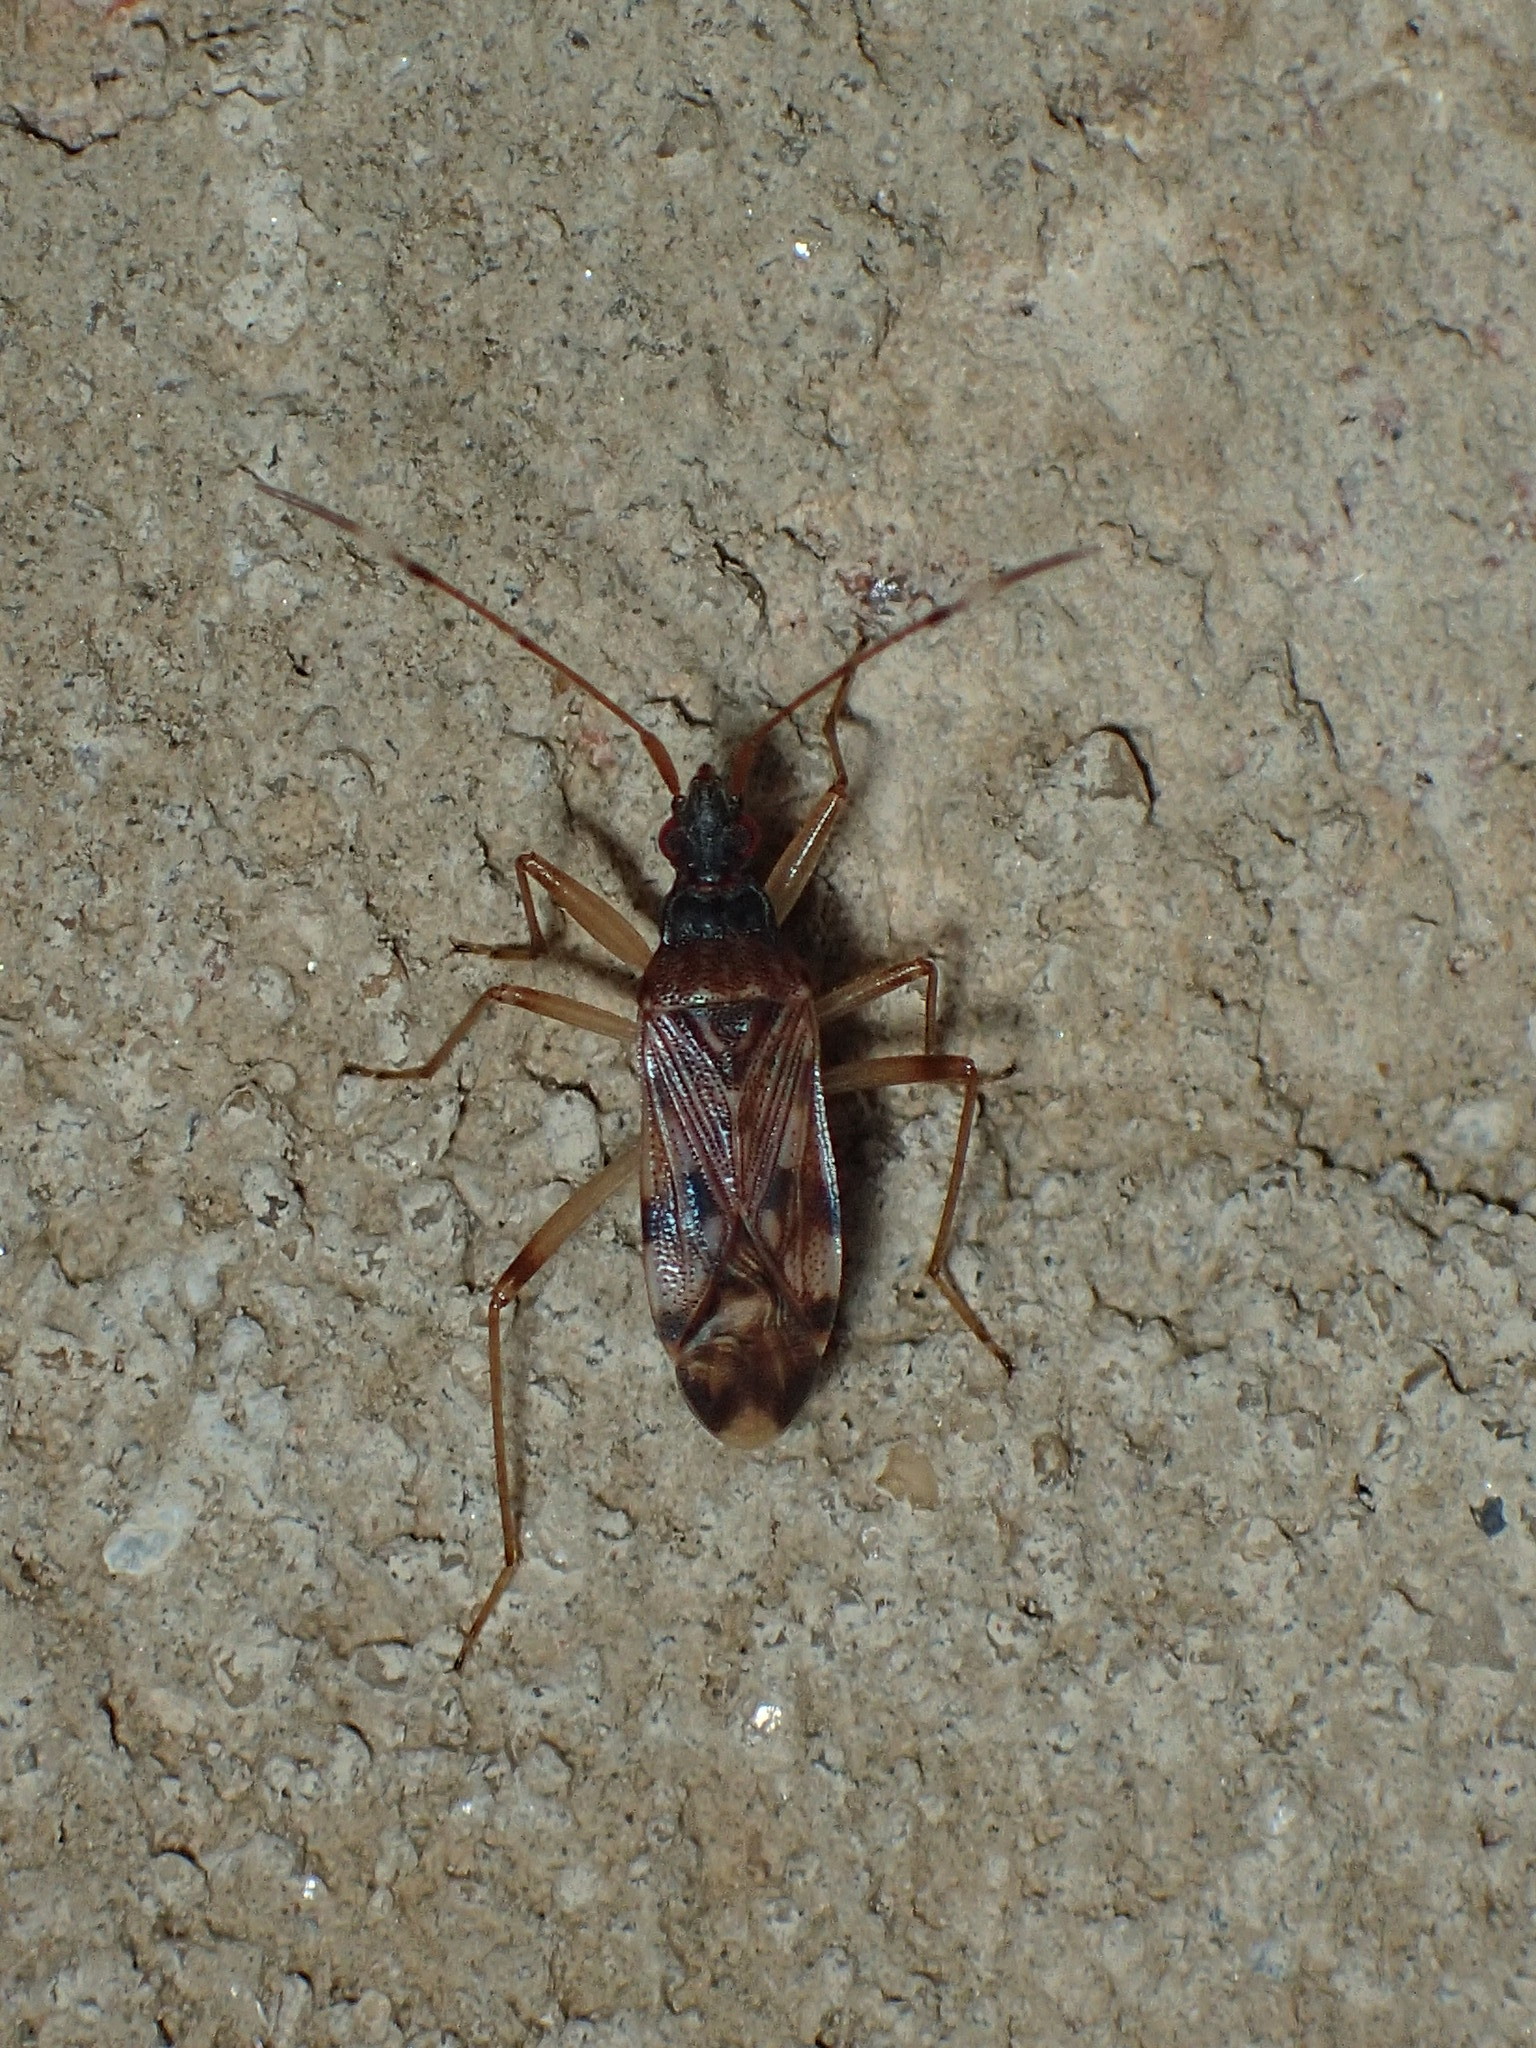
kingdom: Animalia
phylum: Arthropoda
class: Insecta
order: Hemiptera
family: Rhyparochromidae
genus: Ozophora
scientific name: Ozophora picturata
